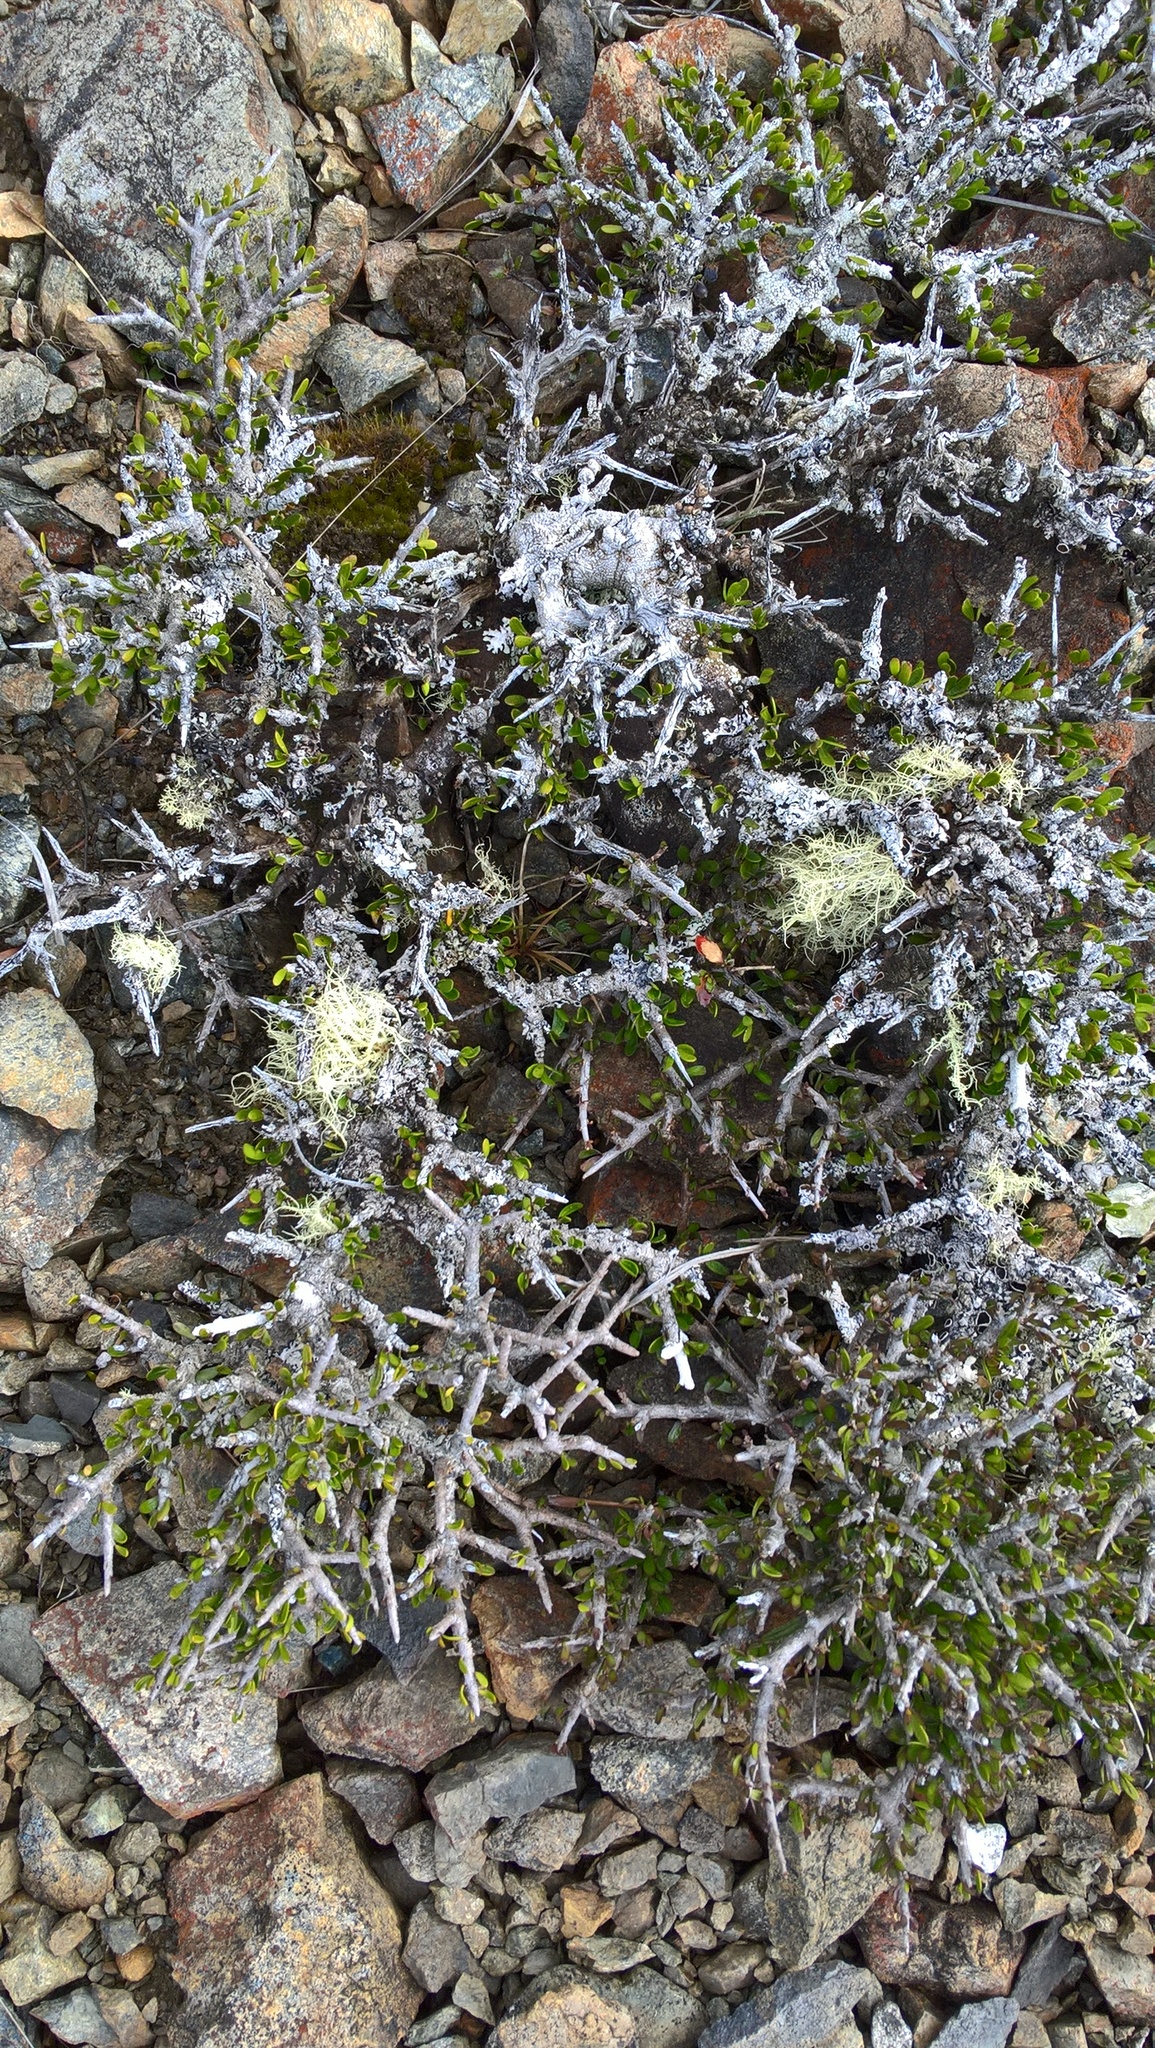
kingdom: Plantae
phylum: Tracheophyta
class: Magnoliopsida
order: Malpighiales
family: Violaceae
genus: Melicytus
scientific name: Melicytus alpinus
